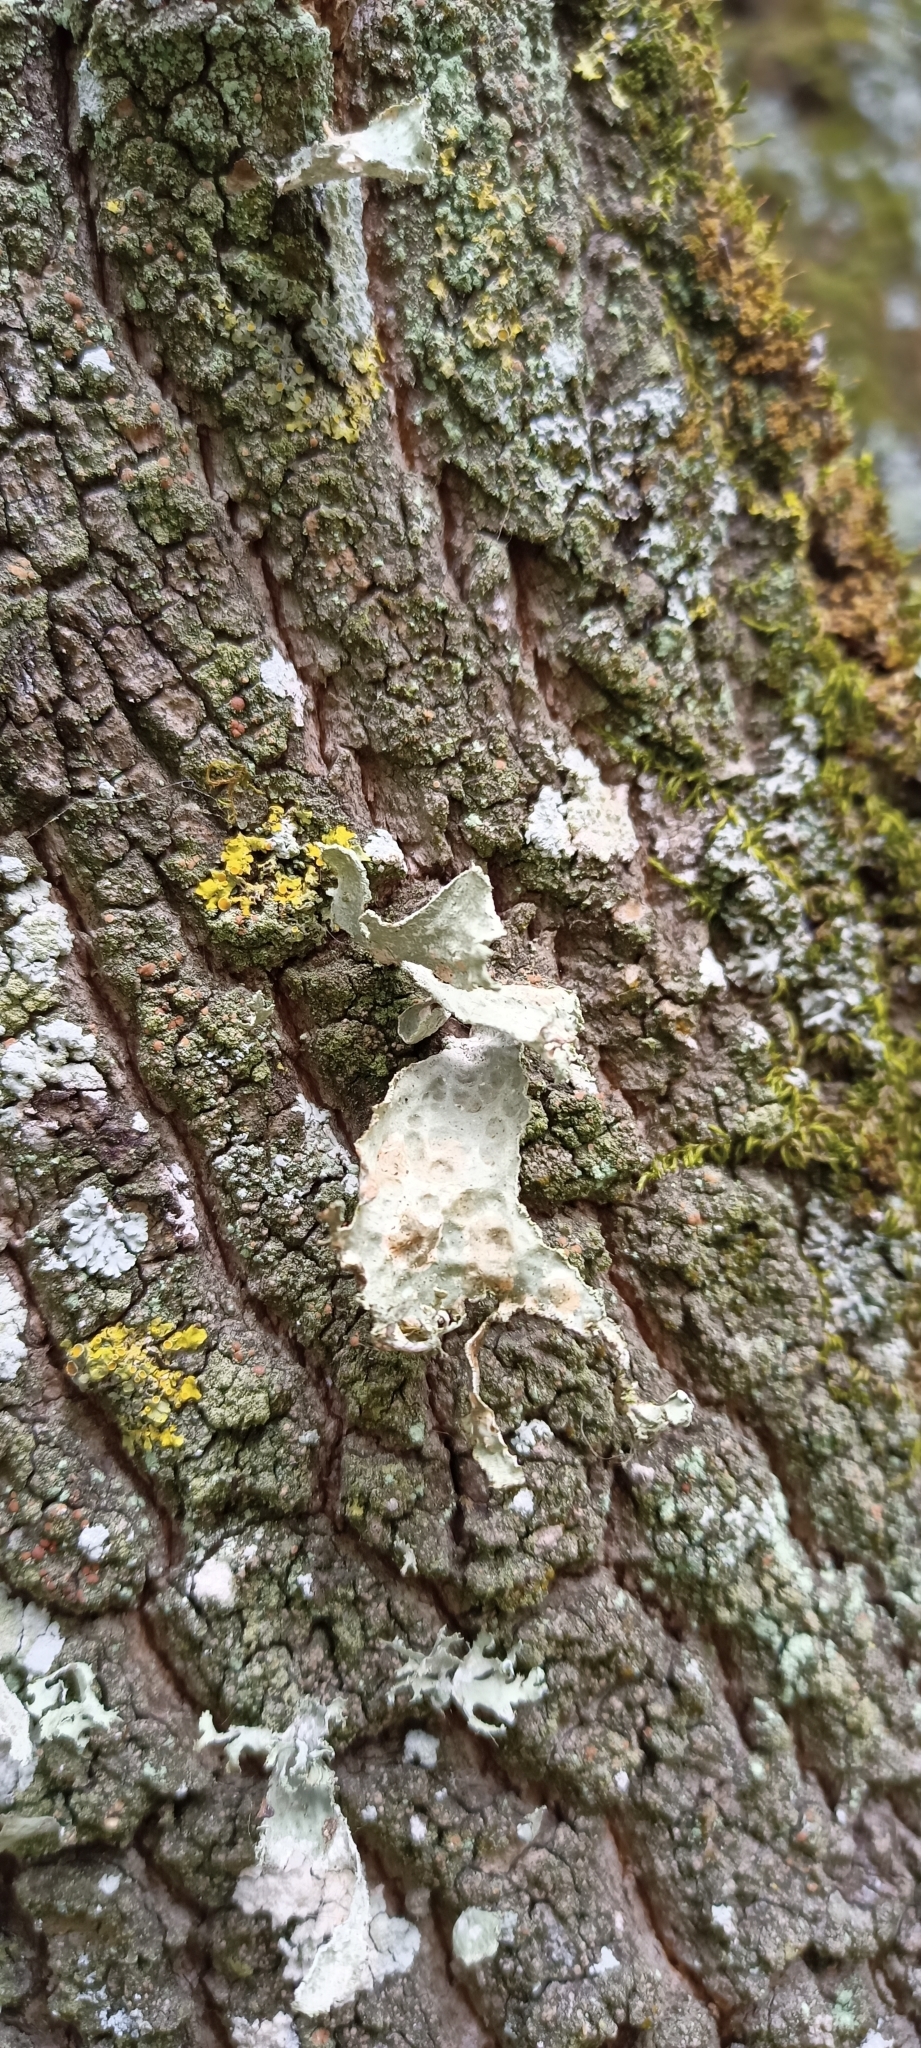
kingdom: Fungi
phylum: Ascomycota
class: Lecanoromycetes
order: Lecanorales
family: Ramalinaceae
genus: Ramalina
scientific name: Ramalina lacera
